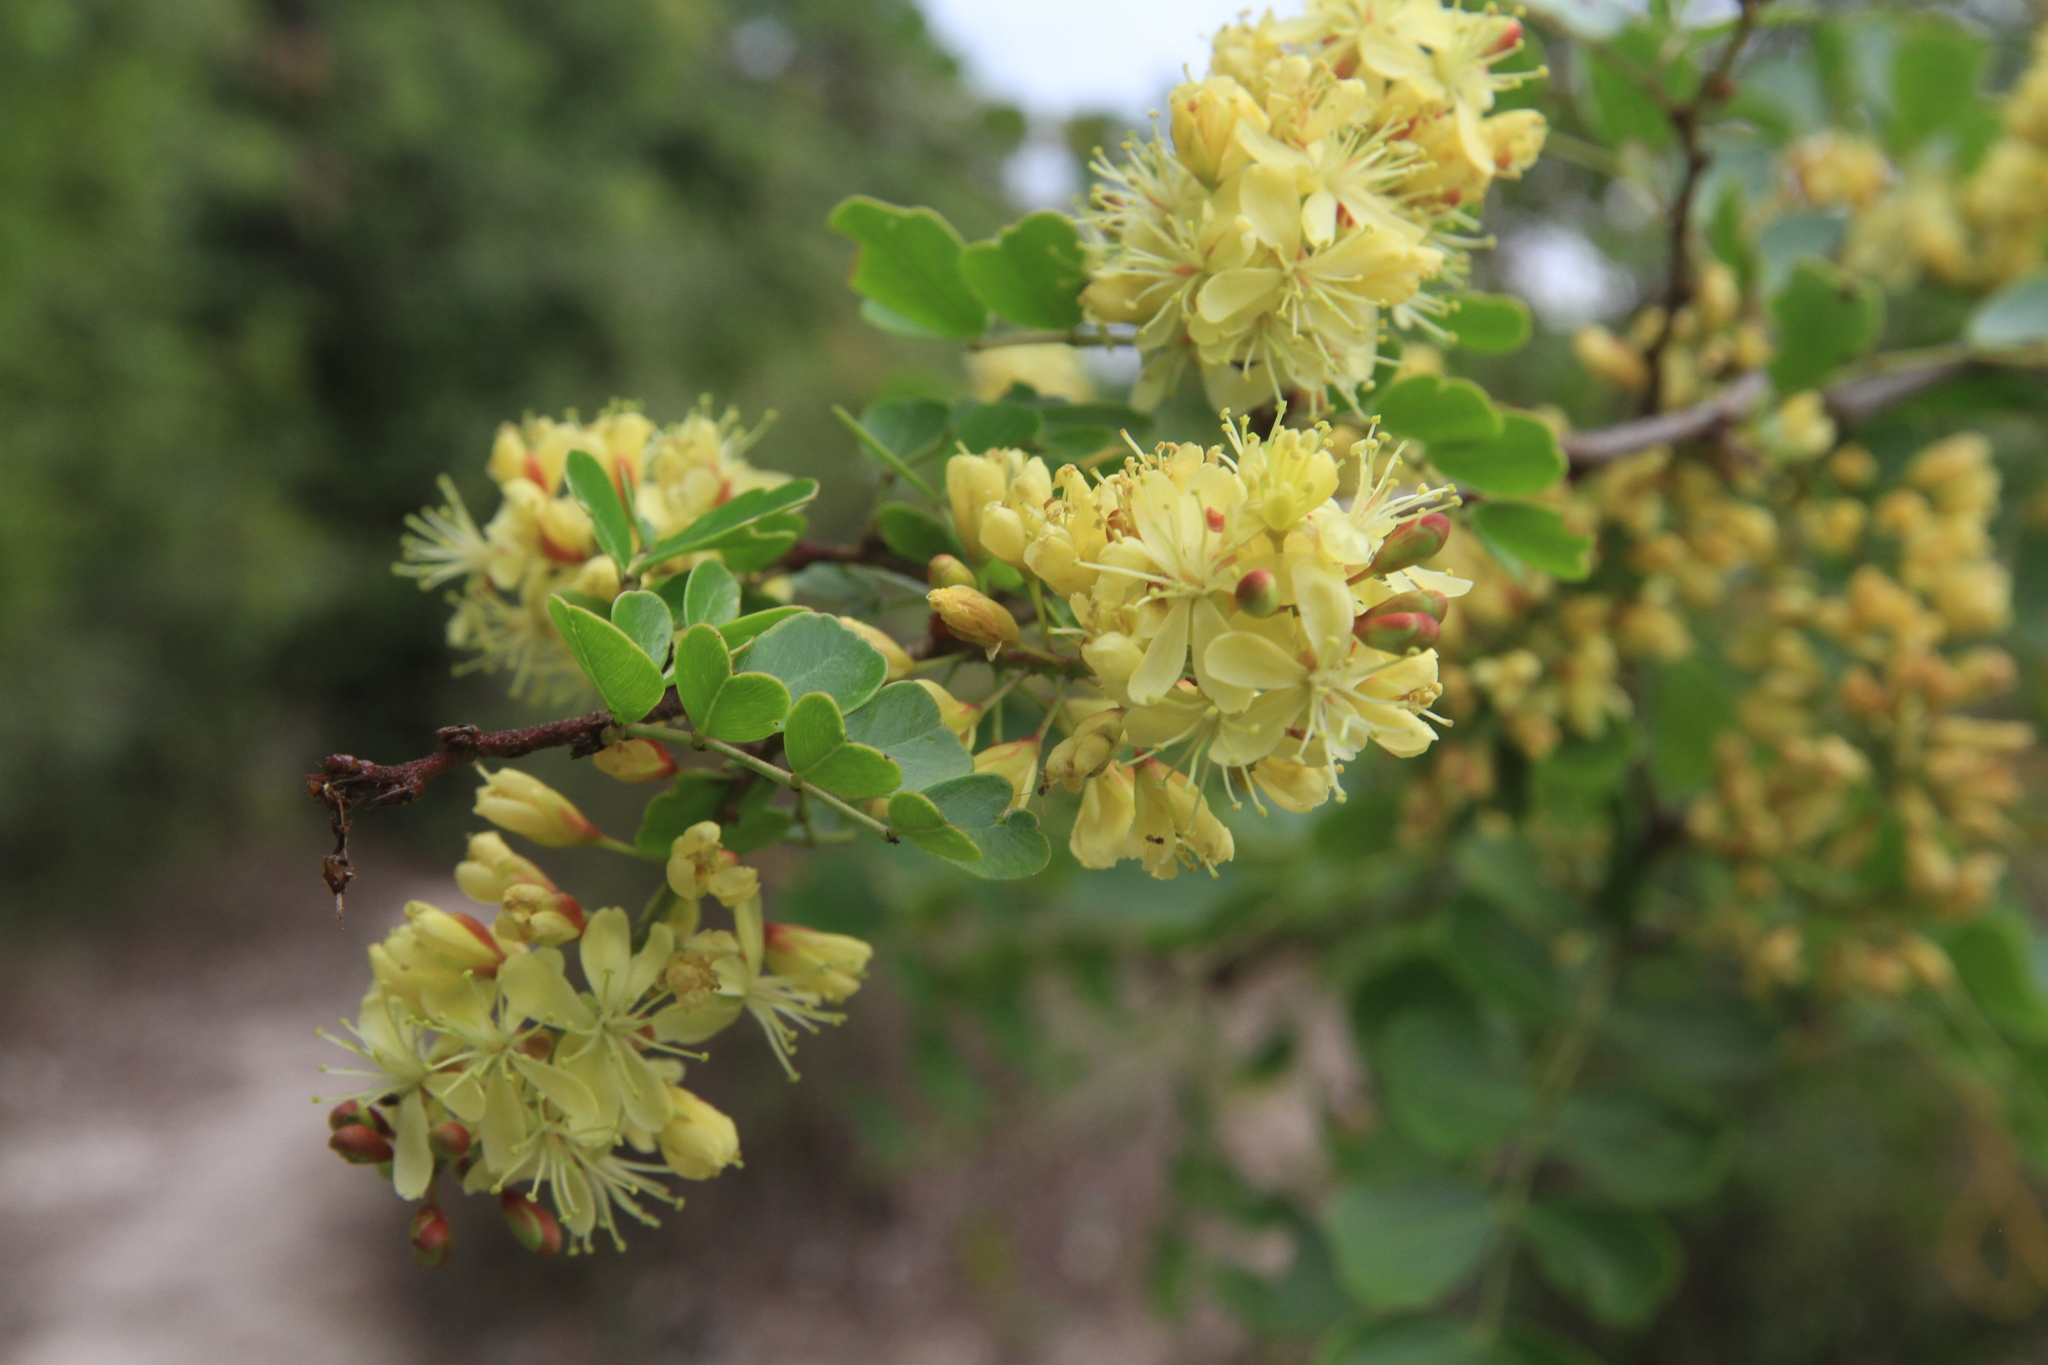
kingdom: Plantae
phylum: Tracheophyta
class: Magnoliopsida
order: Fabales
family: Fabaceae
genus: Haematoxylum
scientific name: Haematoxylum campechianum
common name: Logwood
